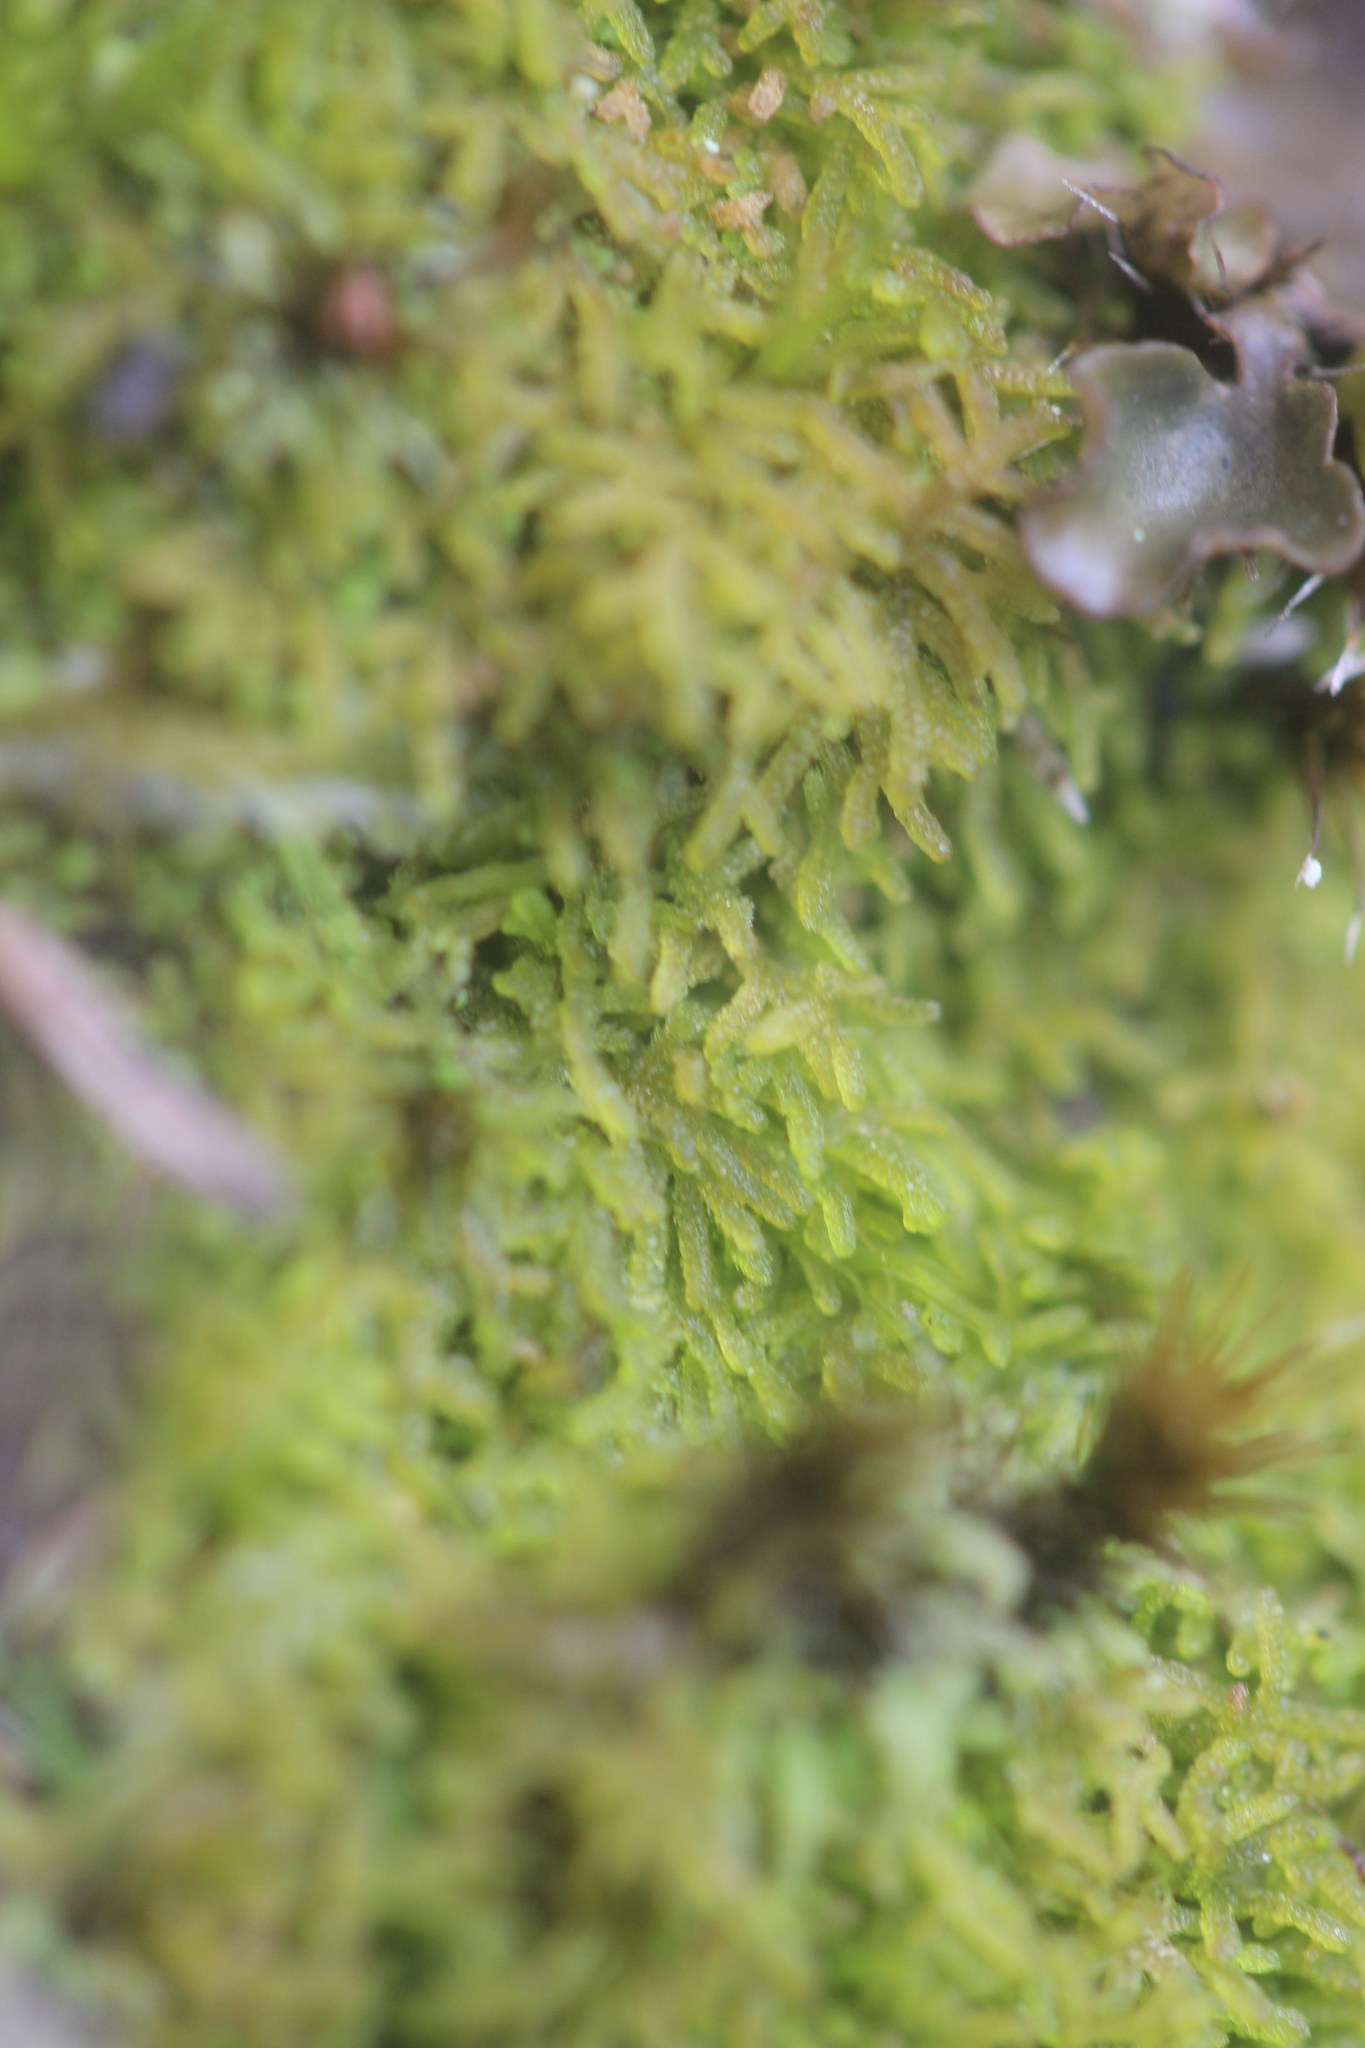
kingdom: Plantae
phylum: Marchantiophyta
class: Jungermanniopsida
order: Jungermanniales
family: Lepidoziaceae
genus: Zoopsis
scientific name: Zoopsis leitgebiana
